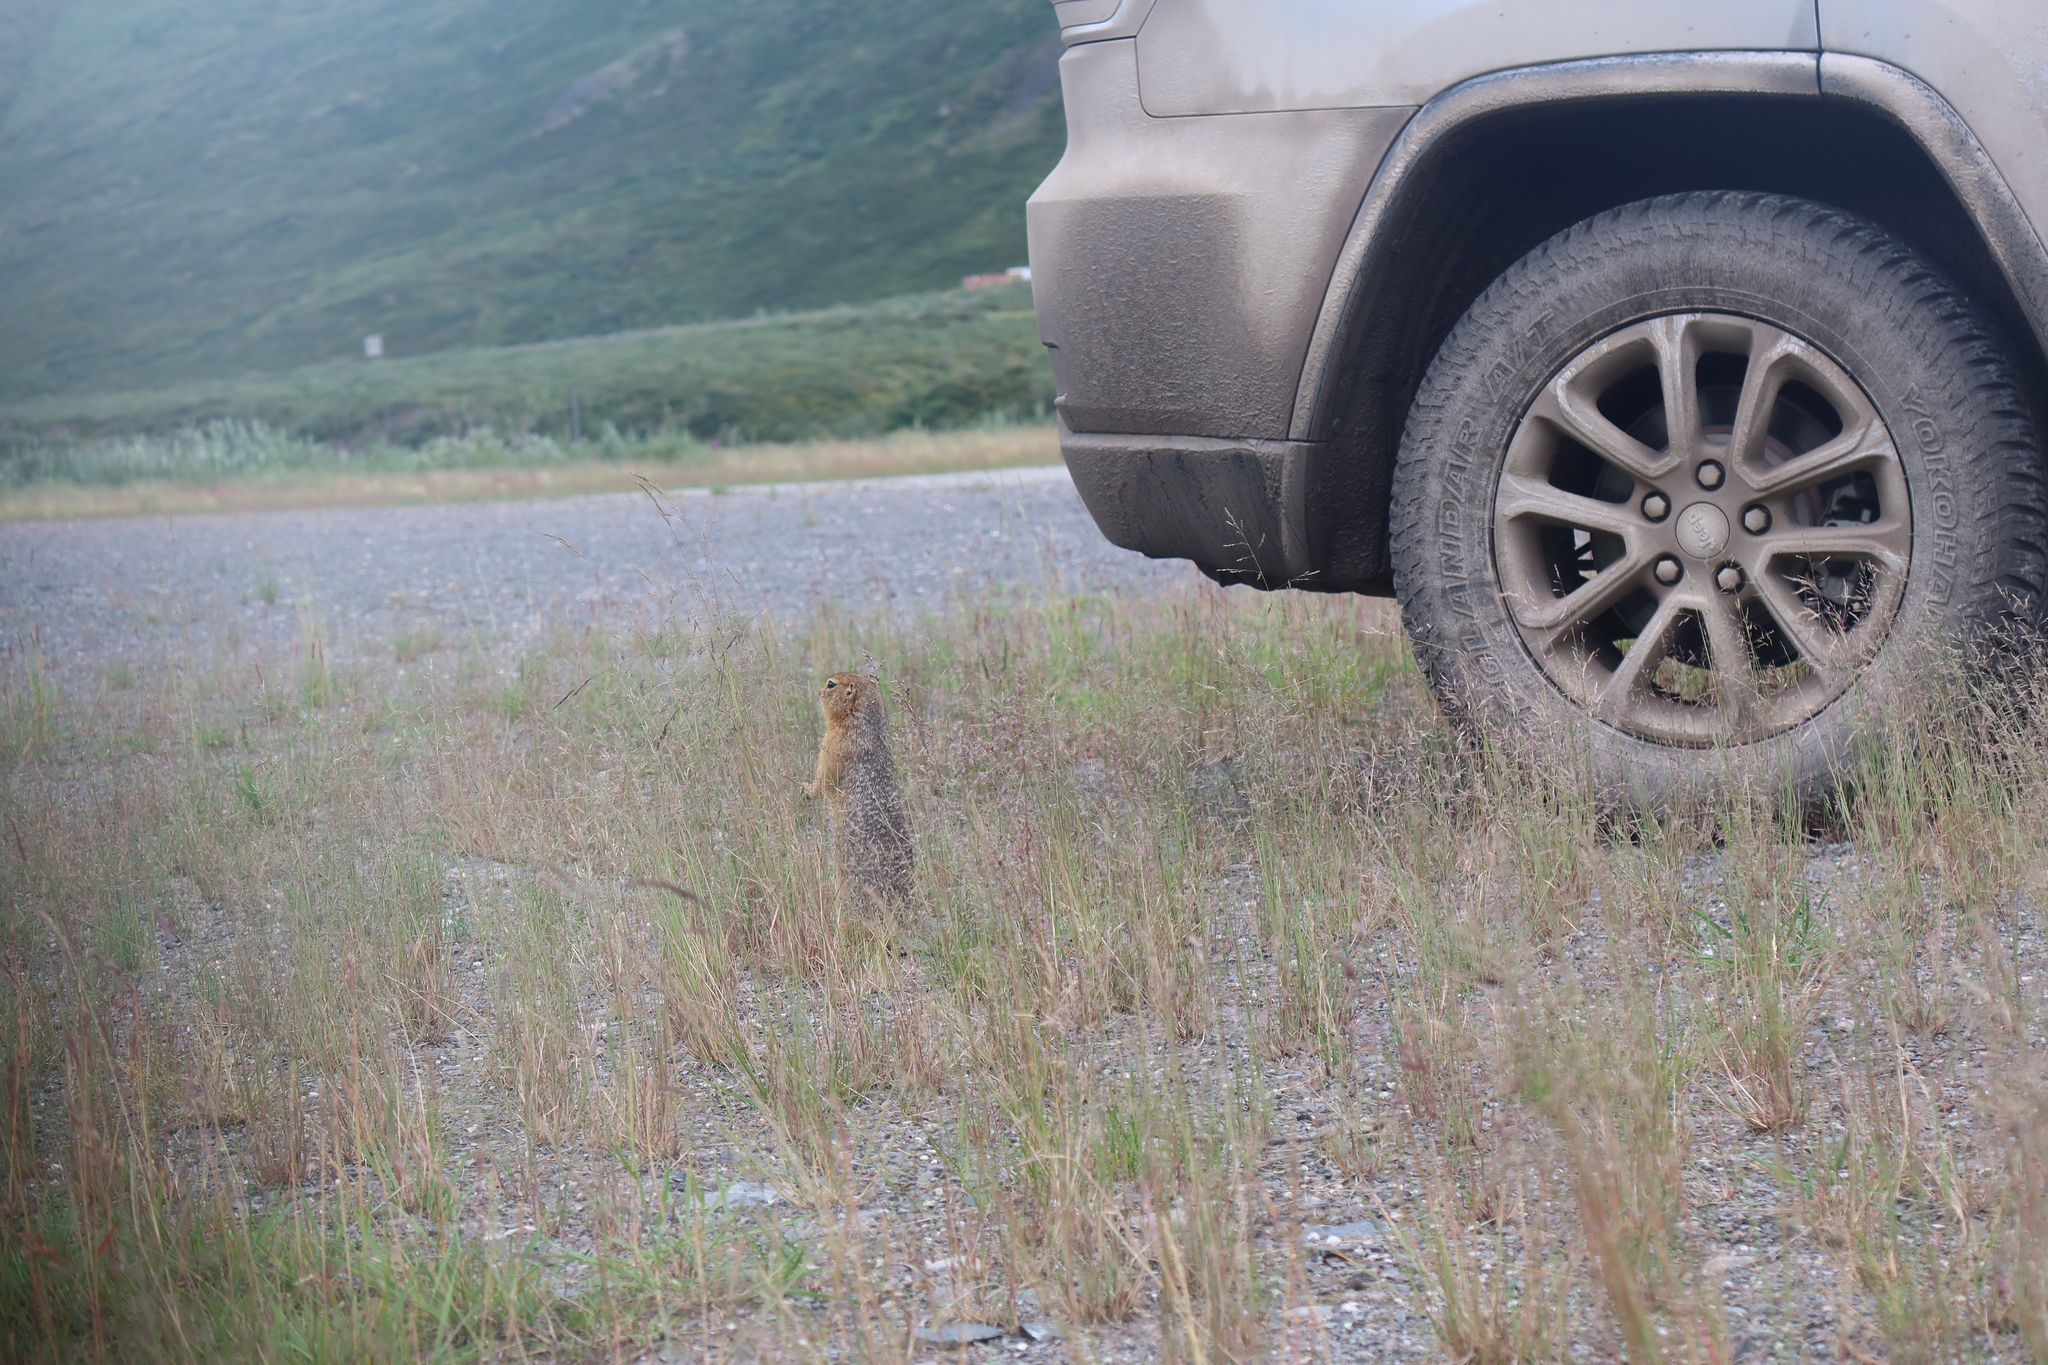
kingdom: Animalia
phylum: Chordata
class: Mammalia
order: Rodentia
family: Sciuridae
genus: Urocitellus
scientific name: Urocitellus parryii
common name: Arctic ground squirrel
